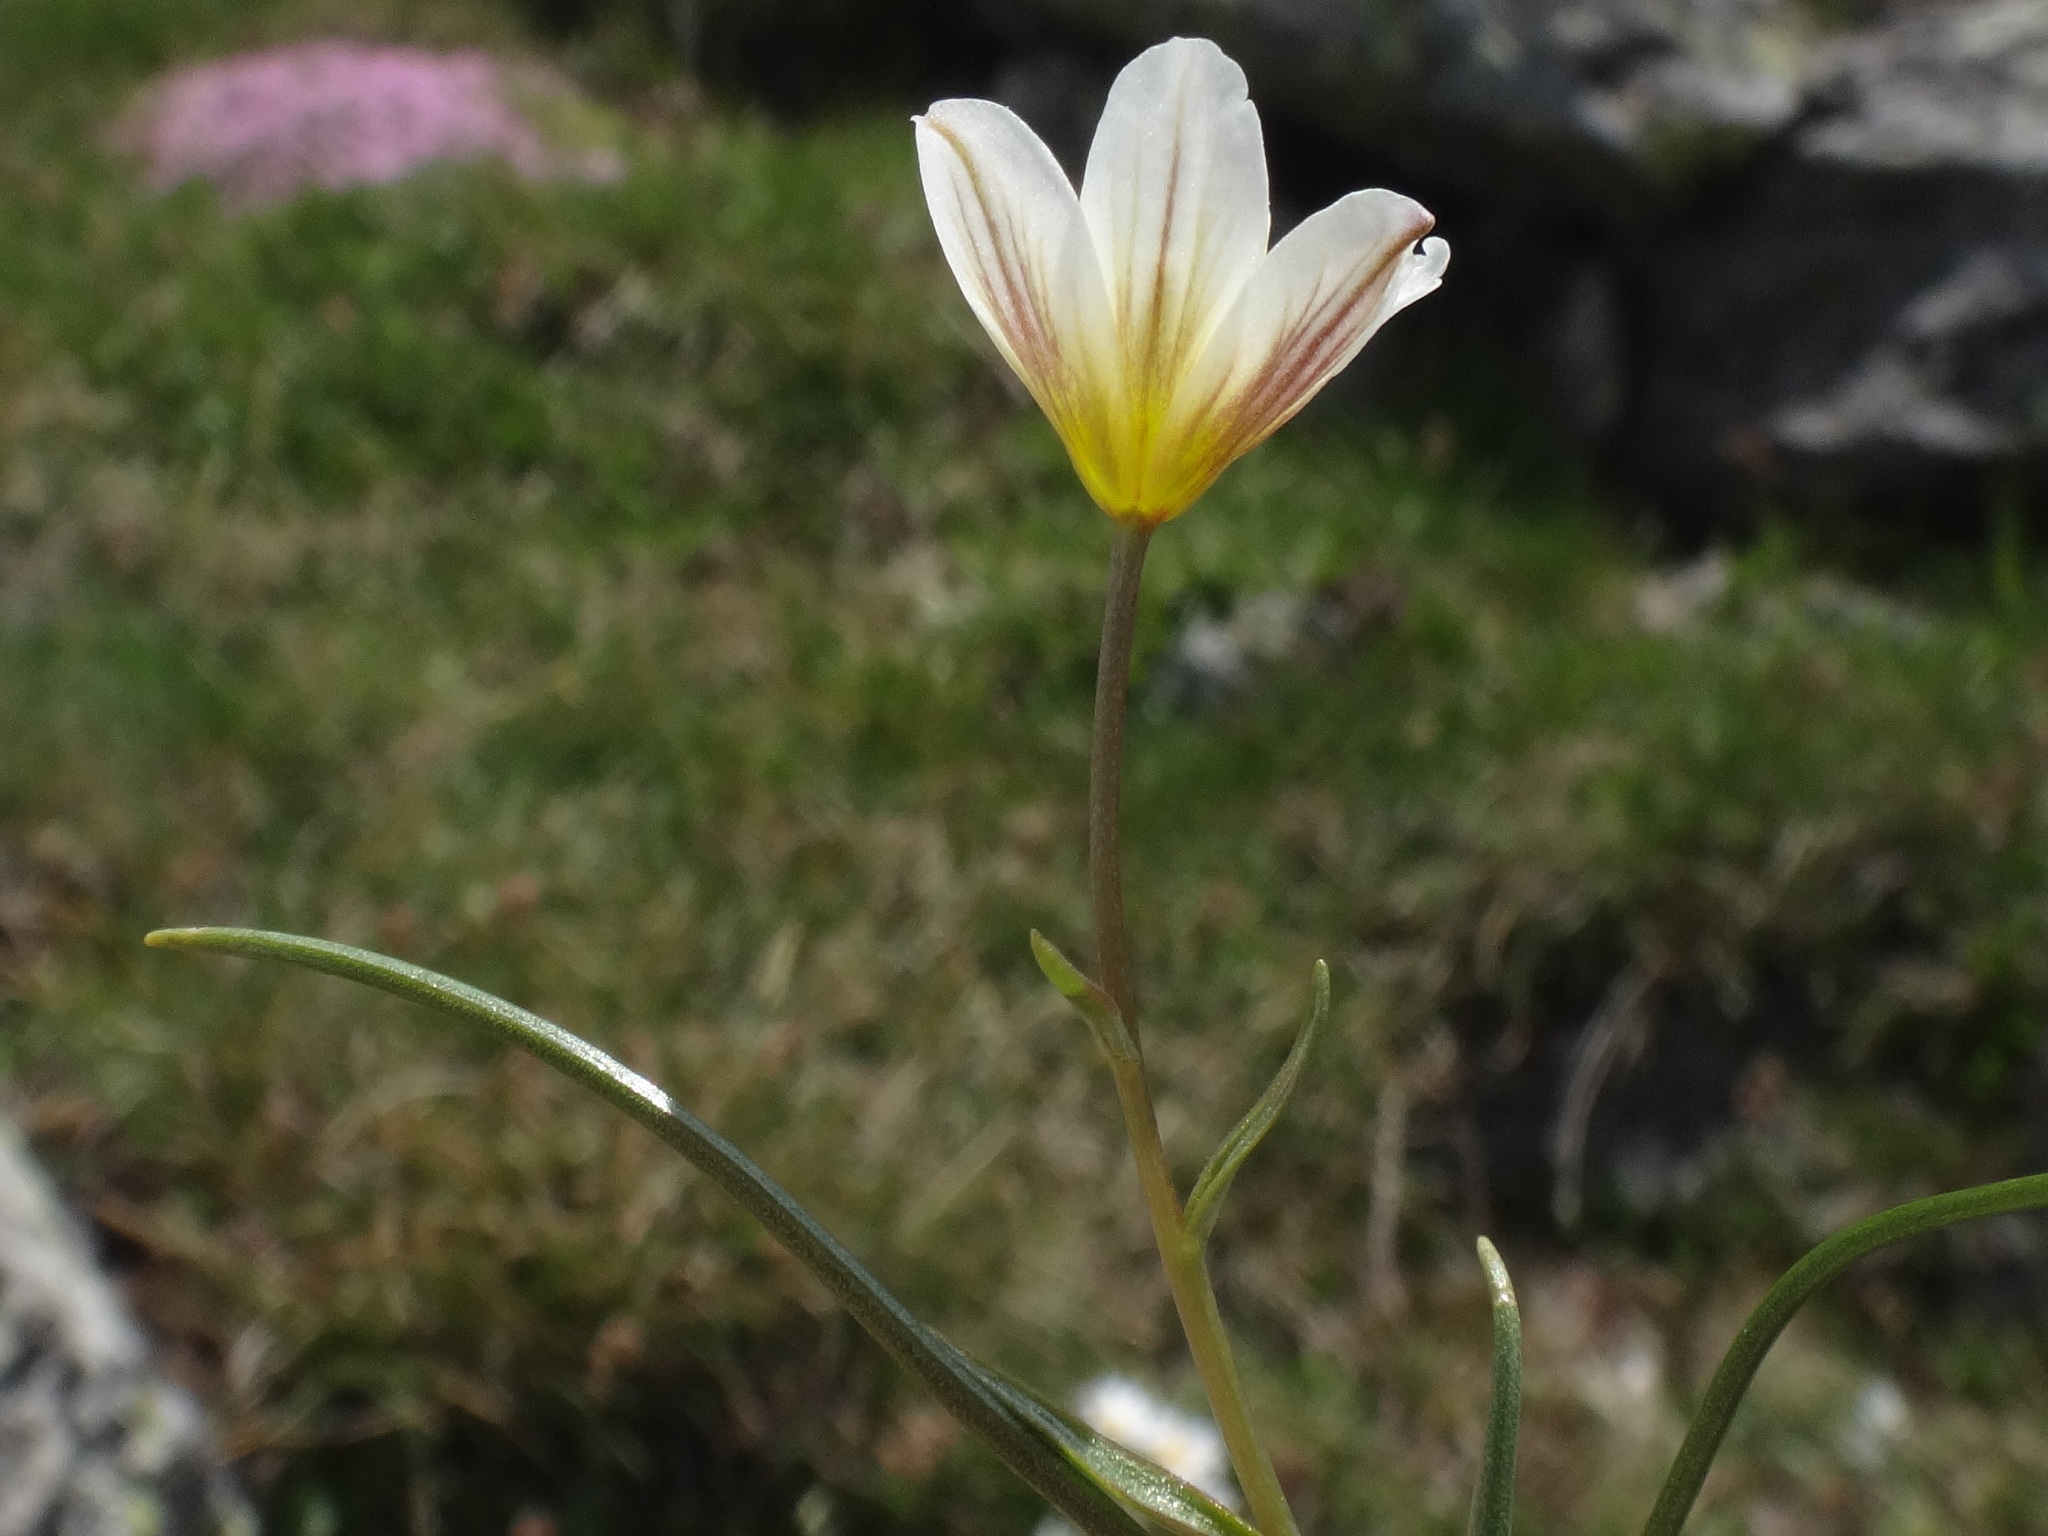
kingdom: Plantae
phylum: Tracheophyta
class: Liliopsida
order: Liliales
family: Liliaceae
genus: Gagea
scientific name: Gagea serotina
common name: Snowdon lily
